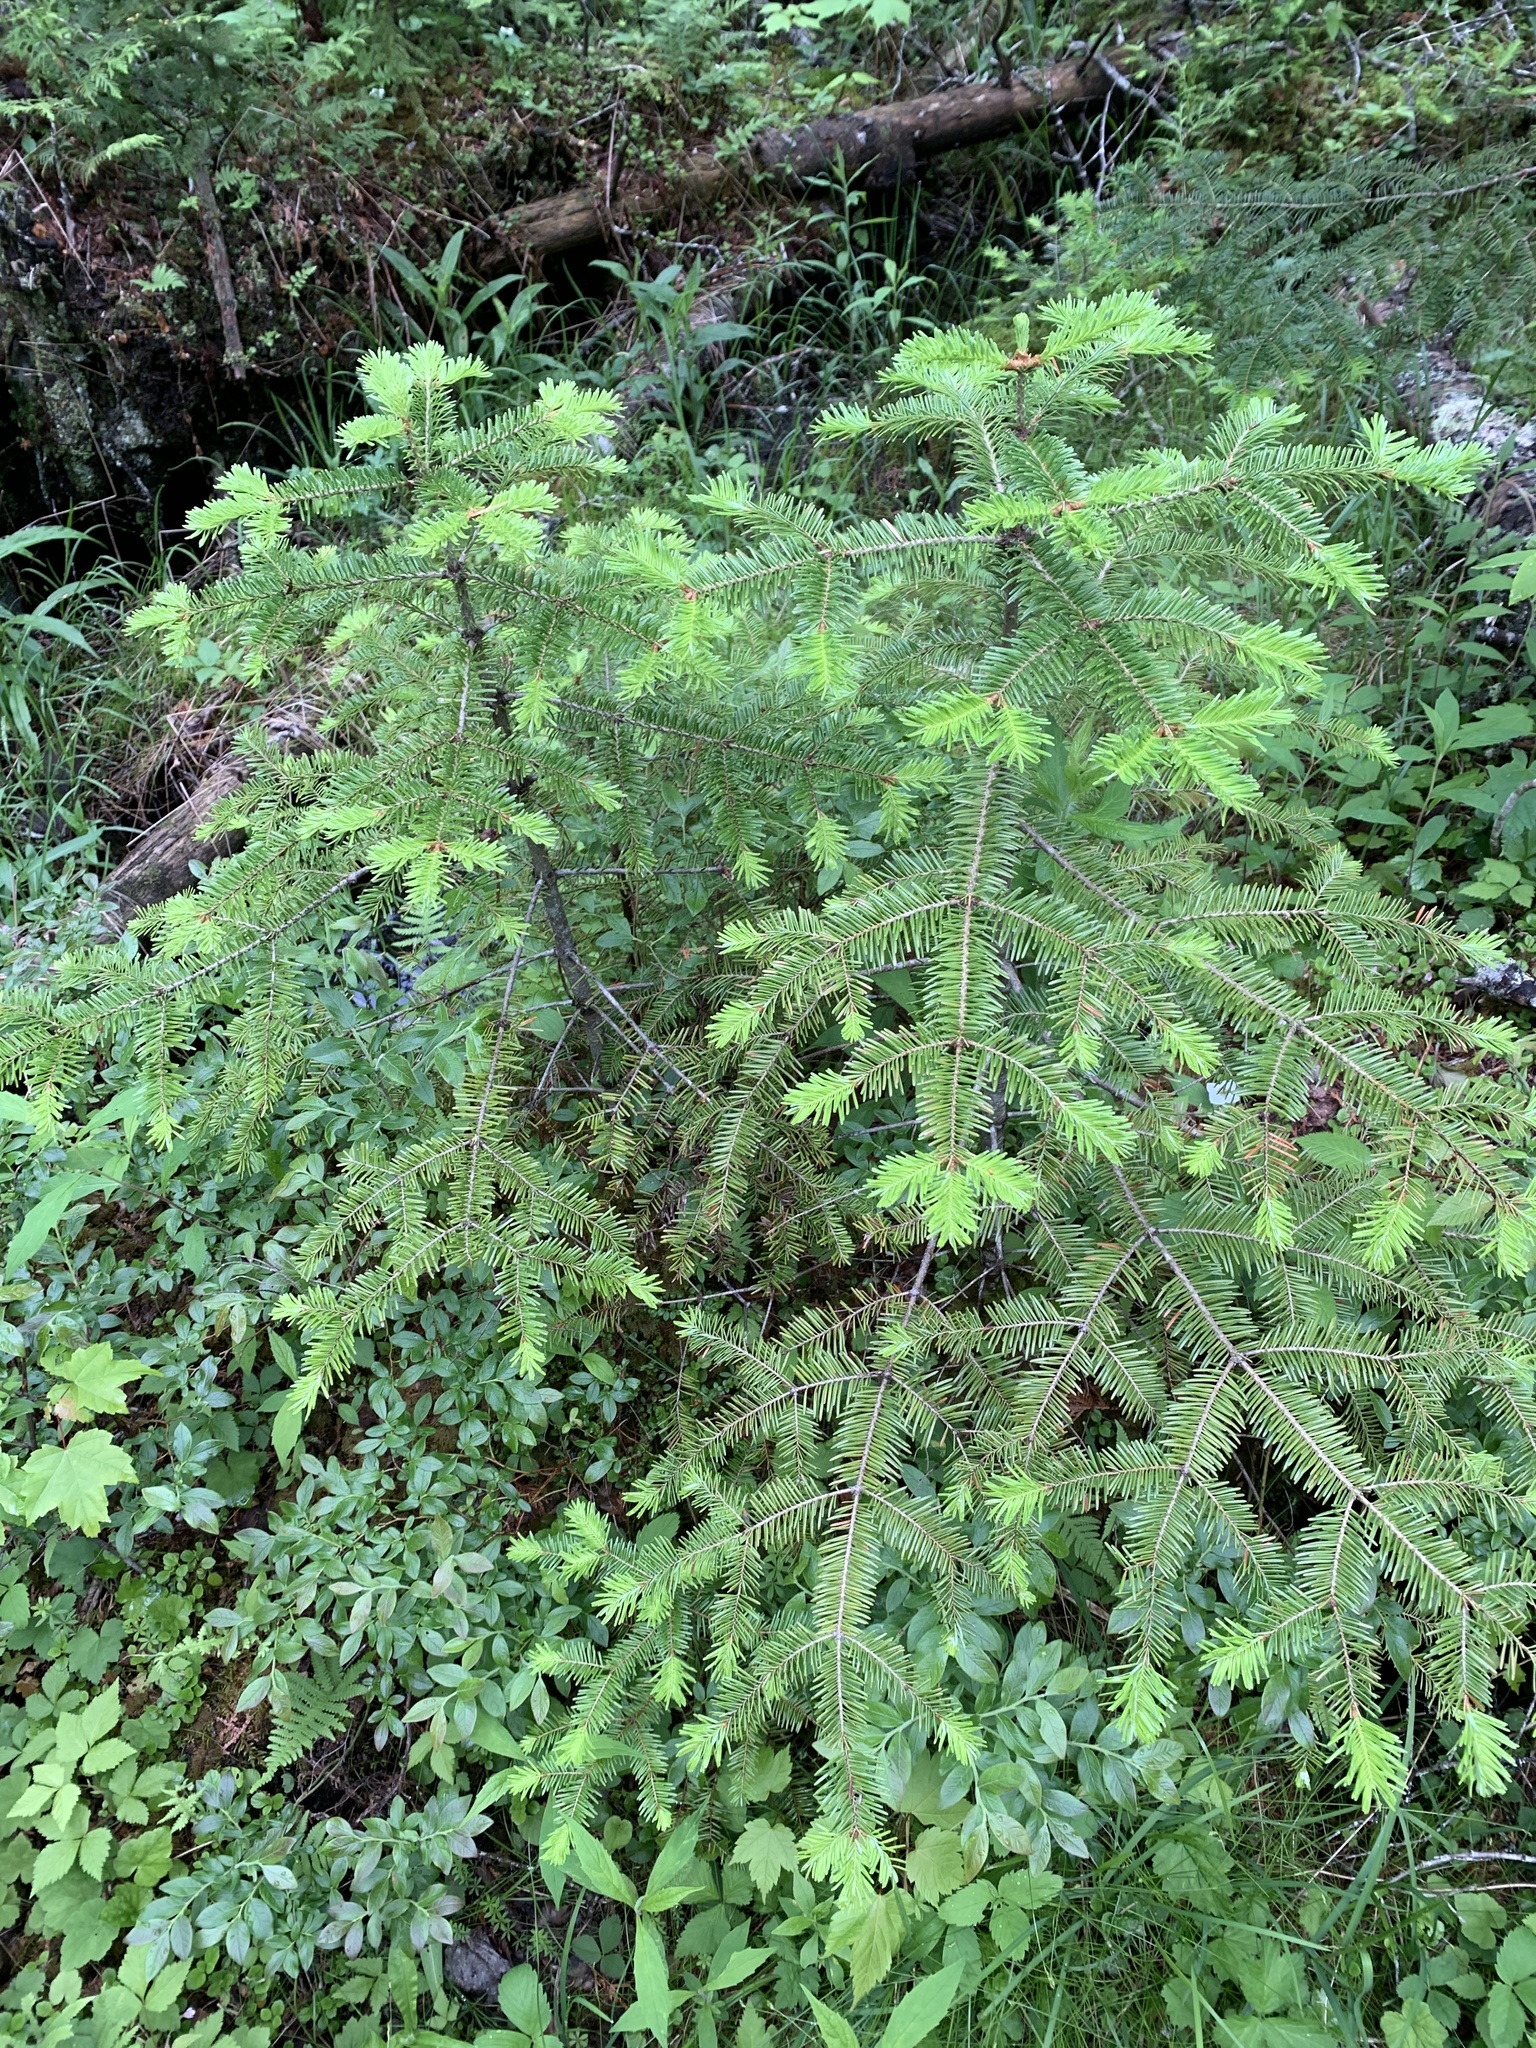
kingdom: Plantae
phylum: Tracheophyta
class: Pinopsida
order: Pinales
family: Pinaceae
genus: Abies
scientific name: Abies balsamea
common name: Balsam fir
